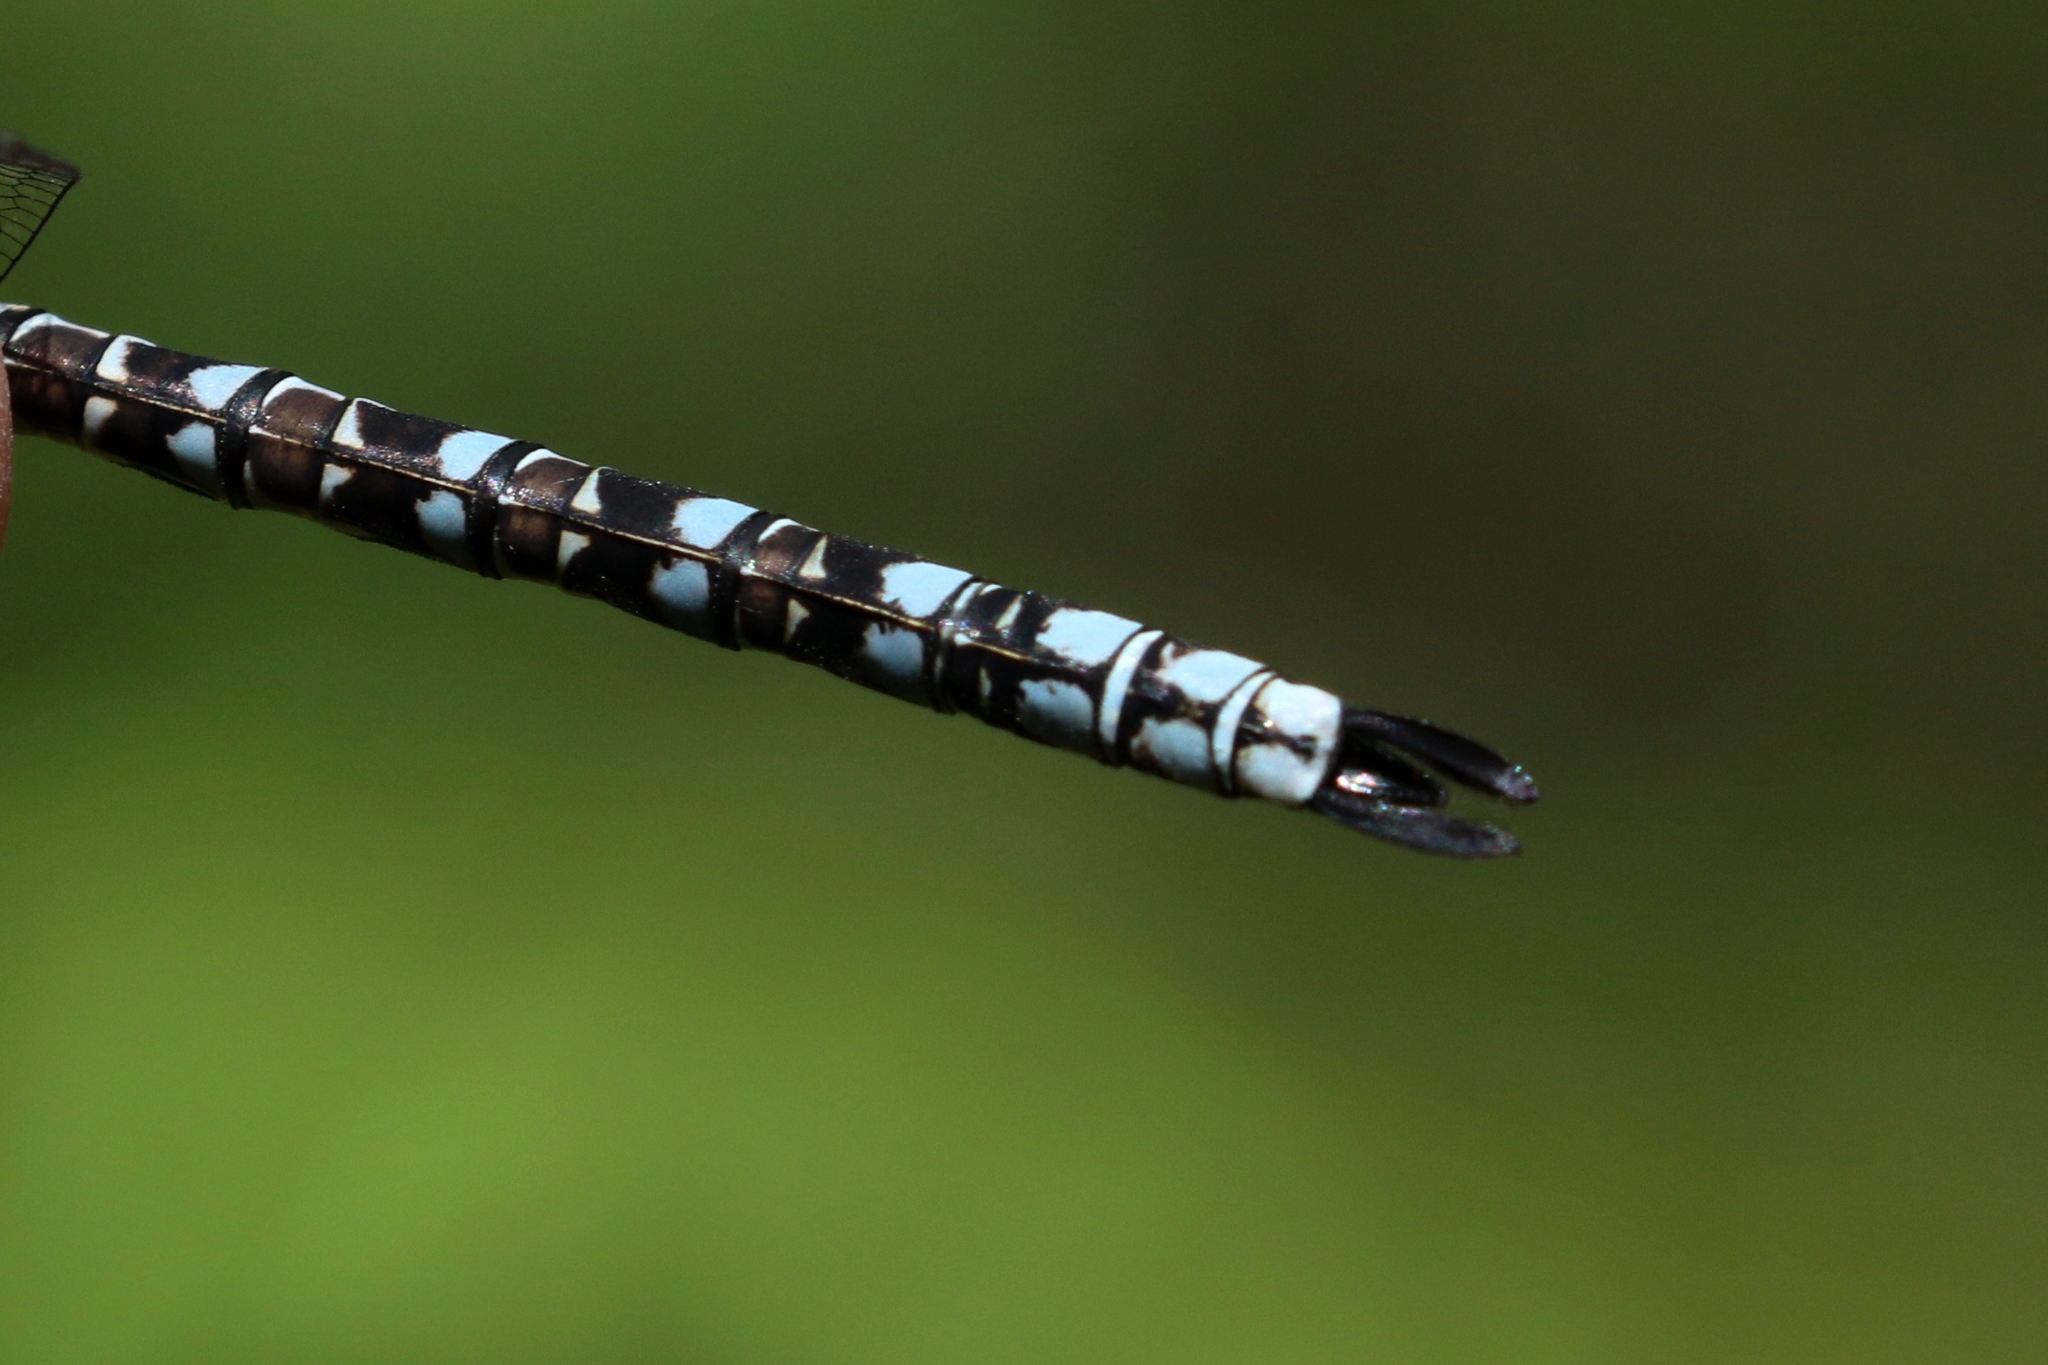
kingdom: Animalia
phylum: Arthropoda
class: Insecta
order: Odonata
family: Aeshnidae
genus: Aeshna
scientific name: Aeshna sitchensis
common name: Zigzag darner
